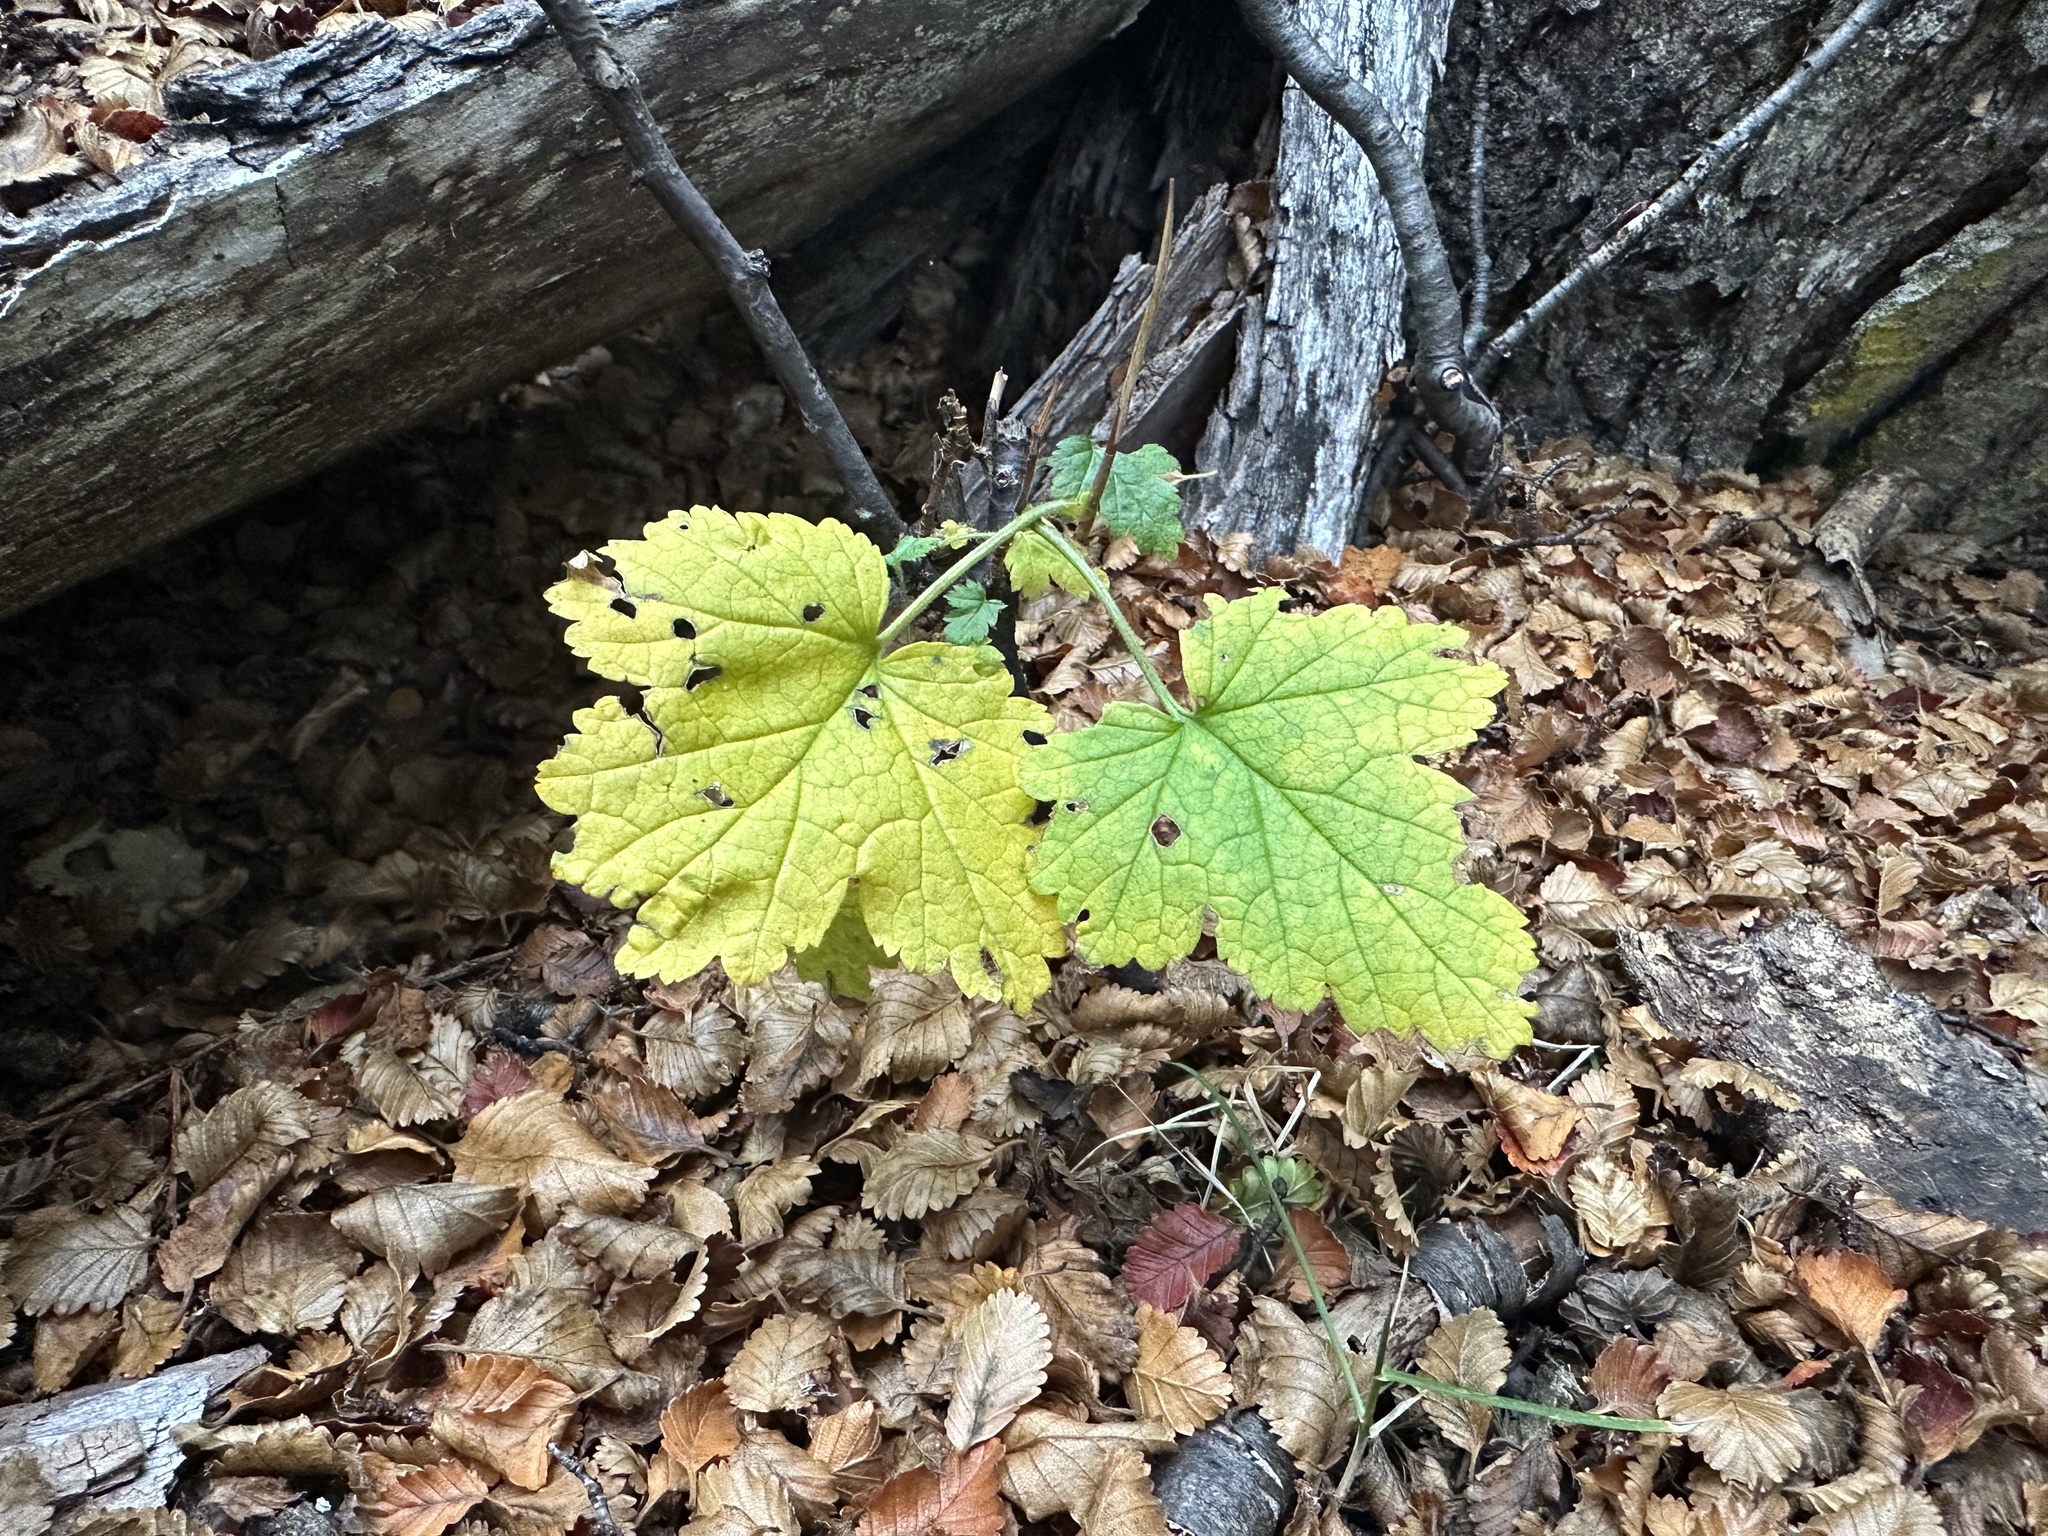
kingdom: Plantae
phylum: Tracheophyta
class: Magnoliopsida
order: Saxifragales
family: Grossulariaceae
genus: Ribes
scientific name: Ribes magellanicum
